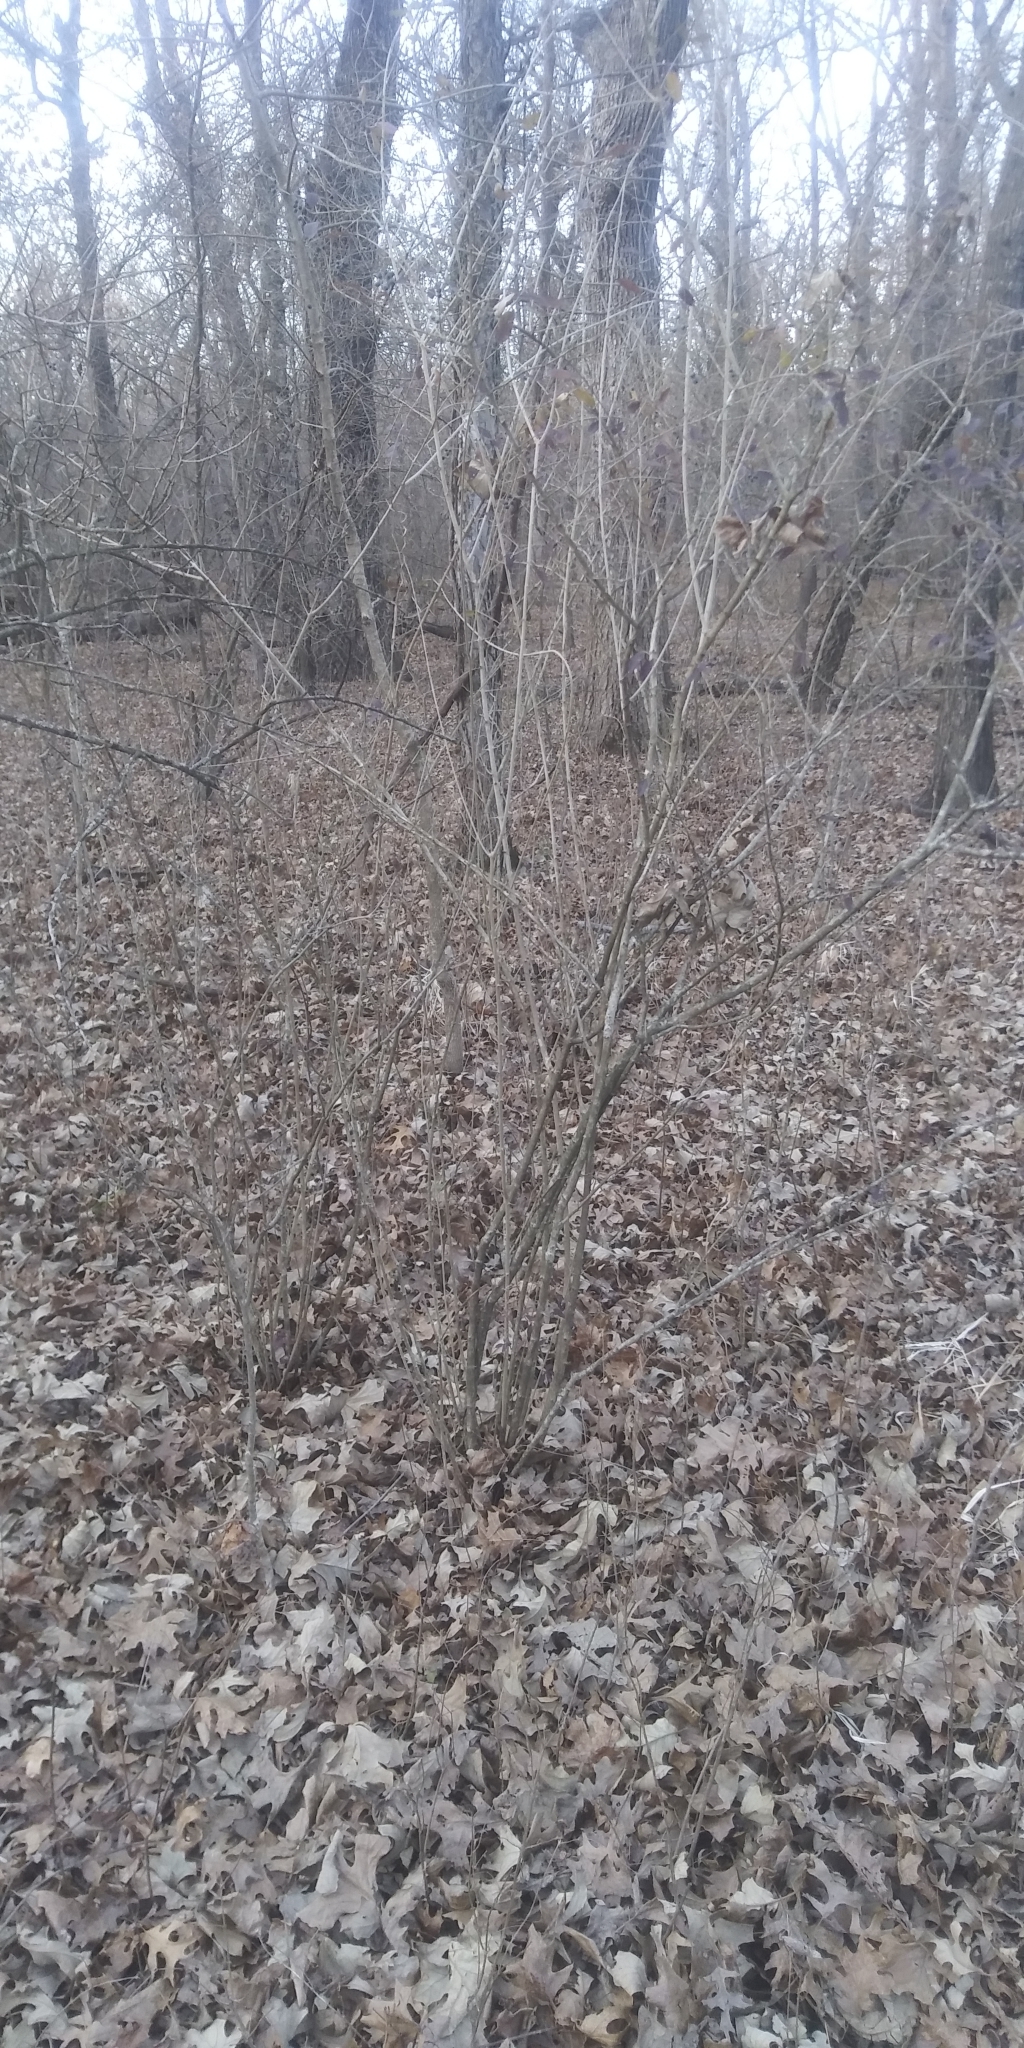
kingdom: Plantae
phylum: Tracheophyta
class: Magnoliopsida
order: Lamiales
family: Oleaceae
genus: Ligustrum
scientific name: Ligustrum quihoui
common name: Waxyleaf privet
